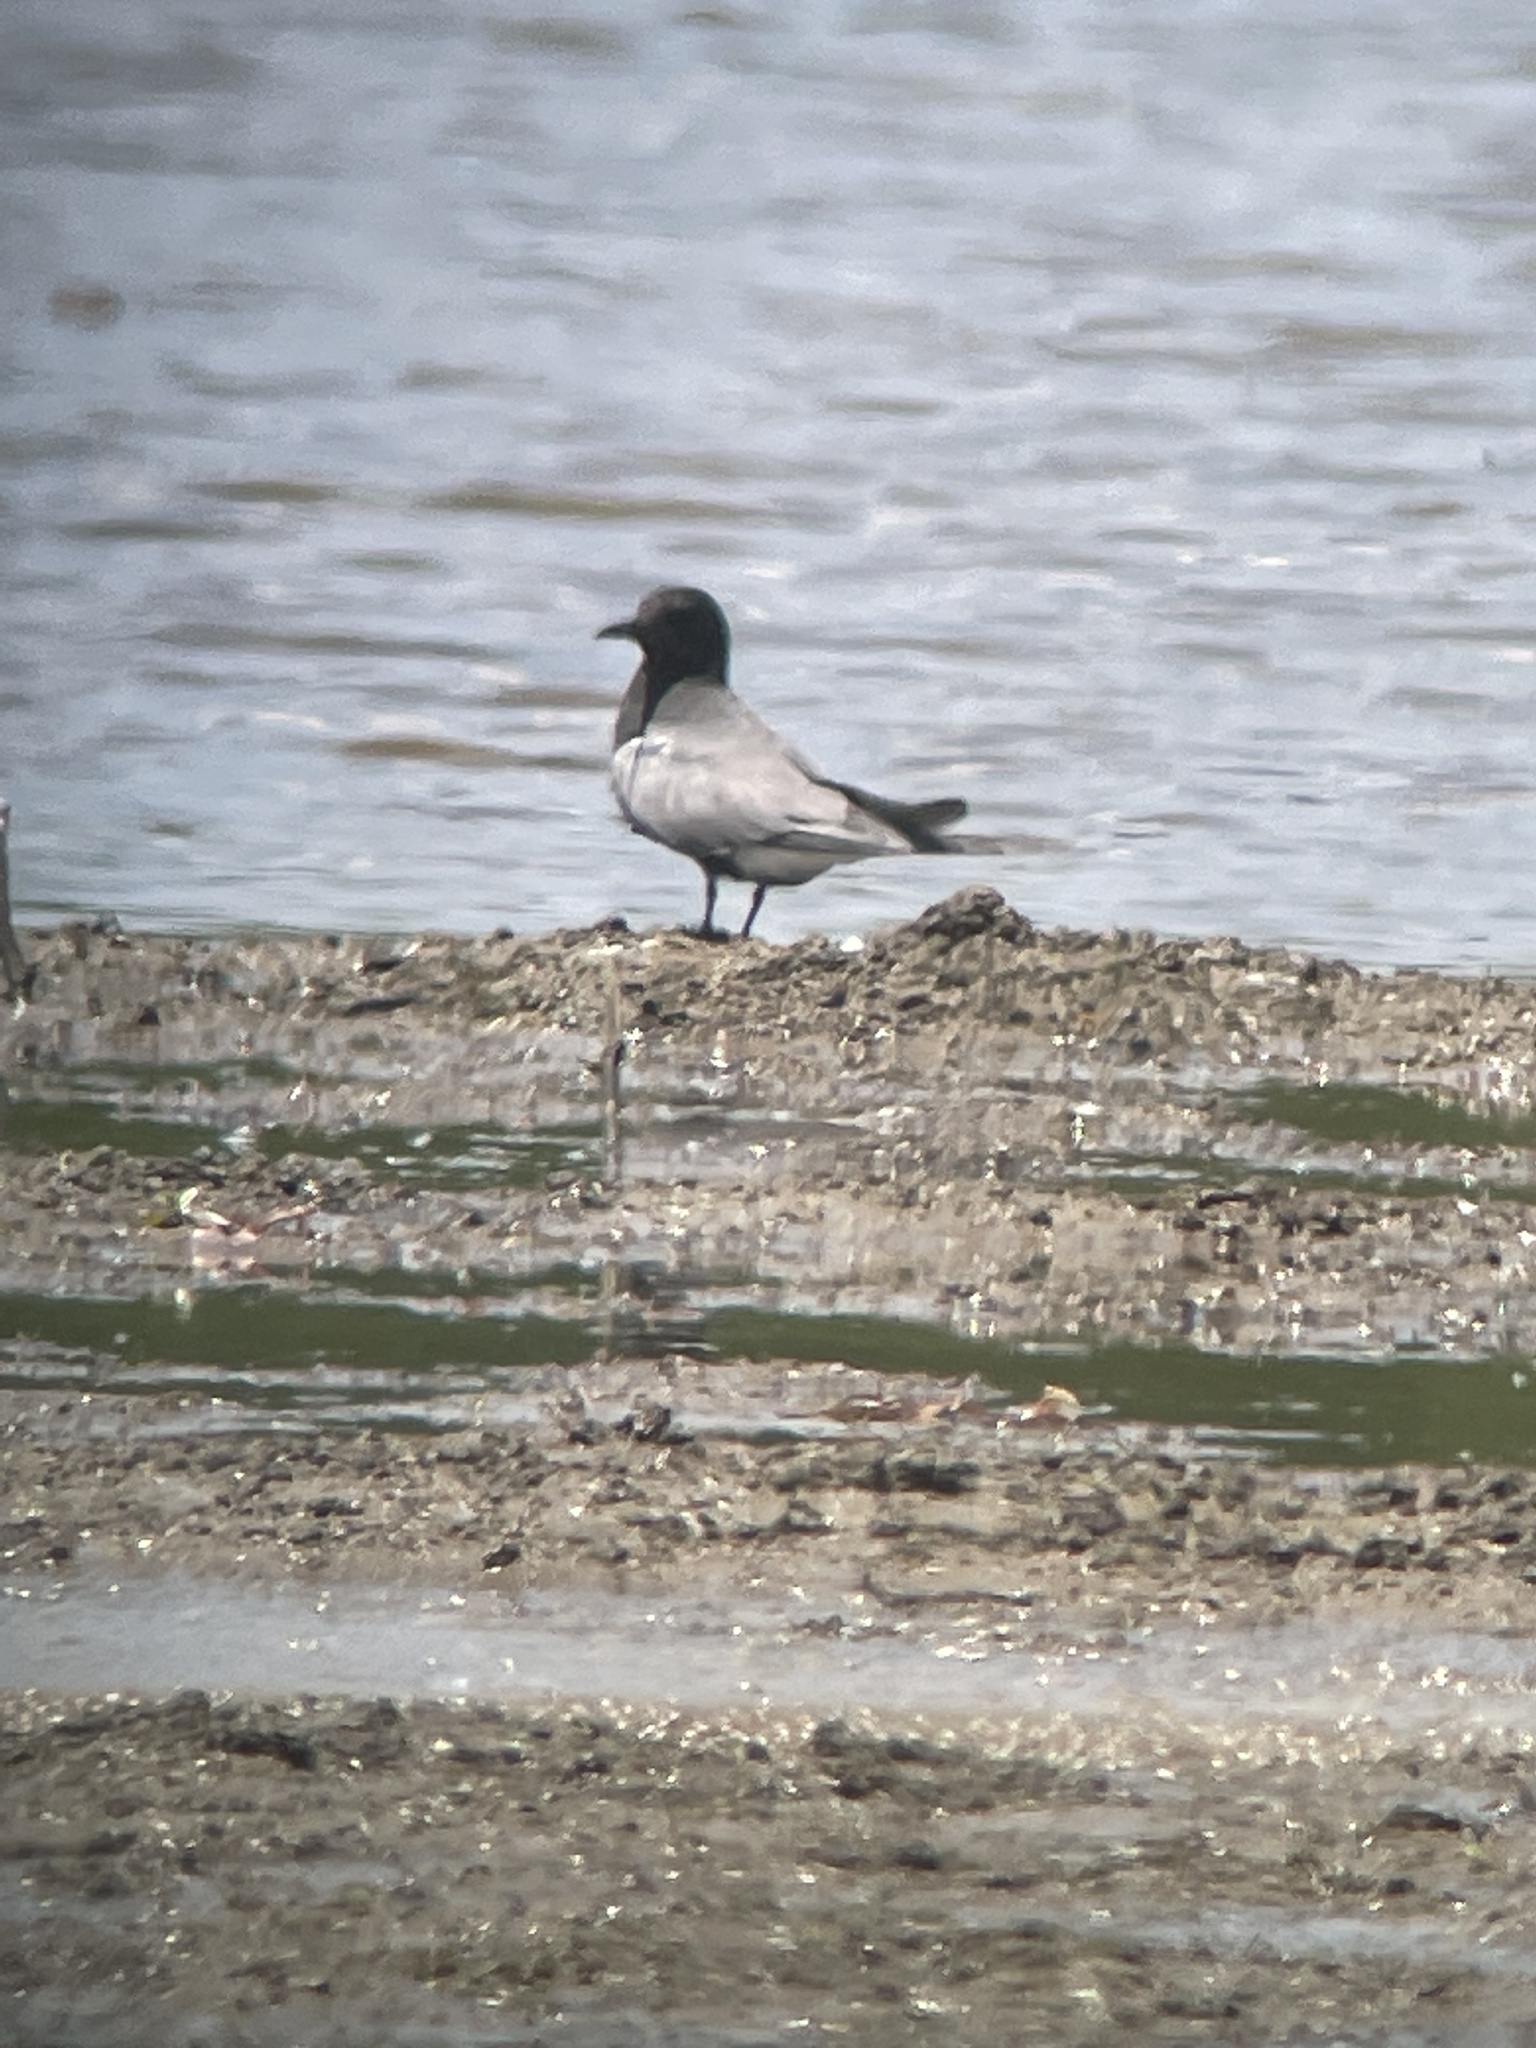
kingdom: Animalia
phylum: Chordata
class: Aves
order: Charadriiformes
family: Laridae
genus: Chlidonias
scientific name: Chlidonias niger
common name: Black tern
